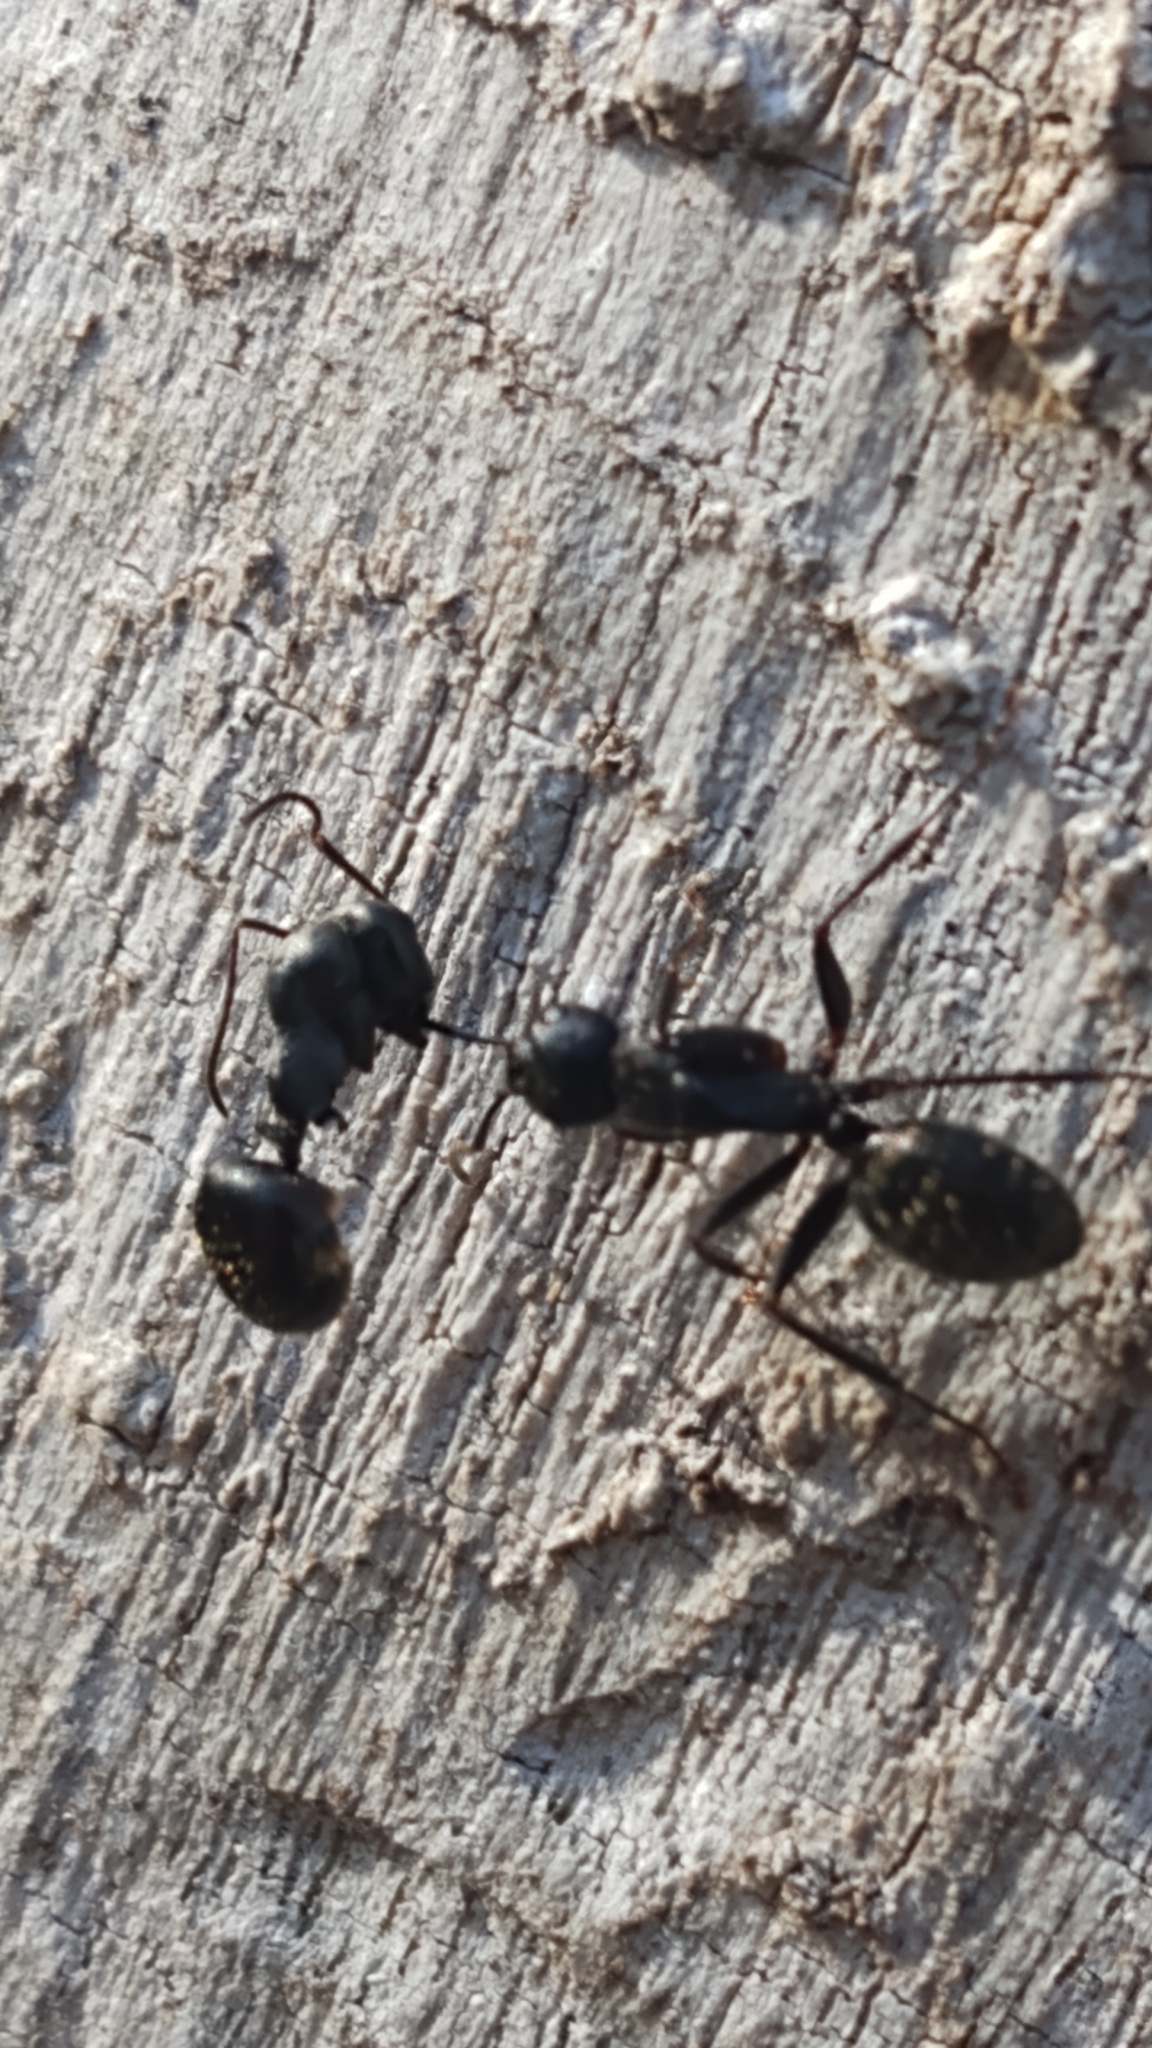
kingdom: Animalia
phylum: Arthropoda
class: Insecta
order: Hymenoptera
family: Formicidae
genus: Camponotus
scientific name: Camponotus pennsylvanicus
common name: Black carpenter ant
